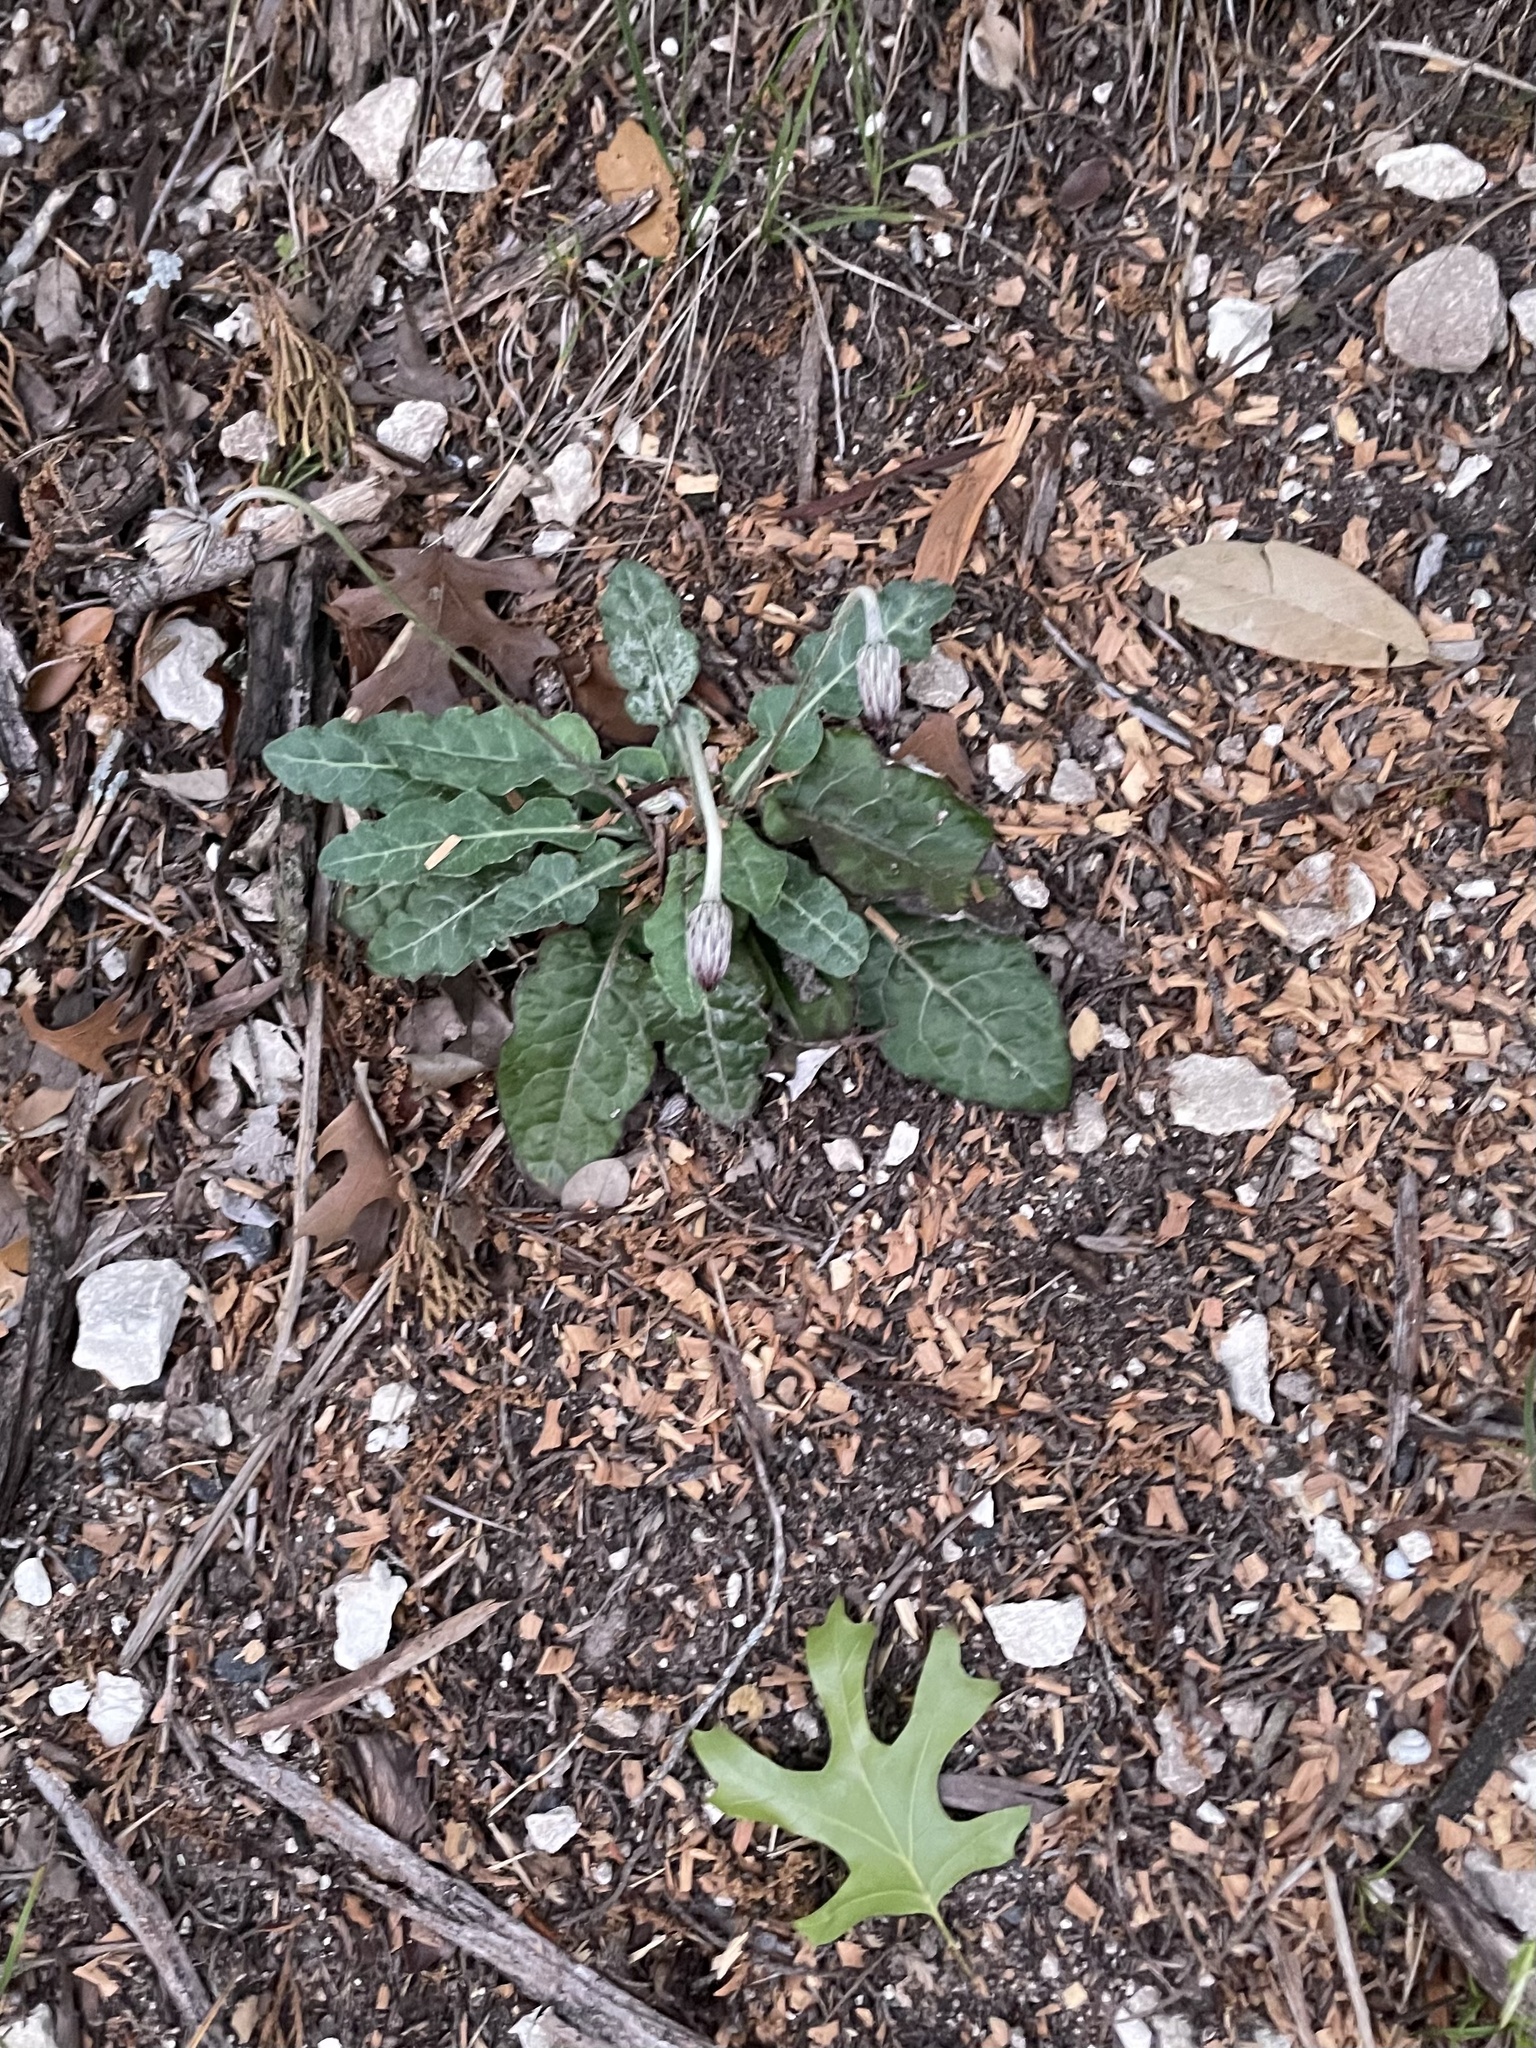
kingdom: Plantae
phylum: Tracheophyta
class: Magnoliopsida
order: Asterales
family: Asteraceae
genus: Chaptalia
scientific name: Chaptalia texana
